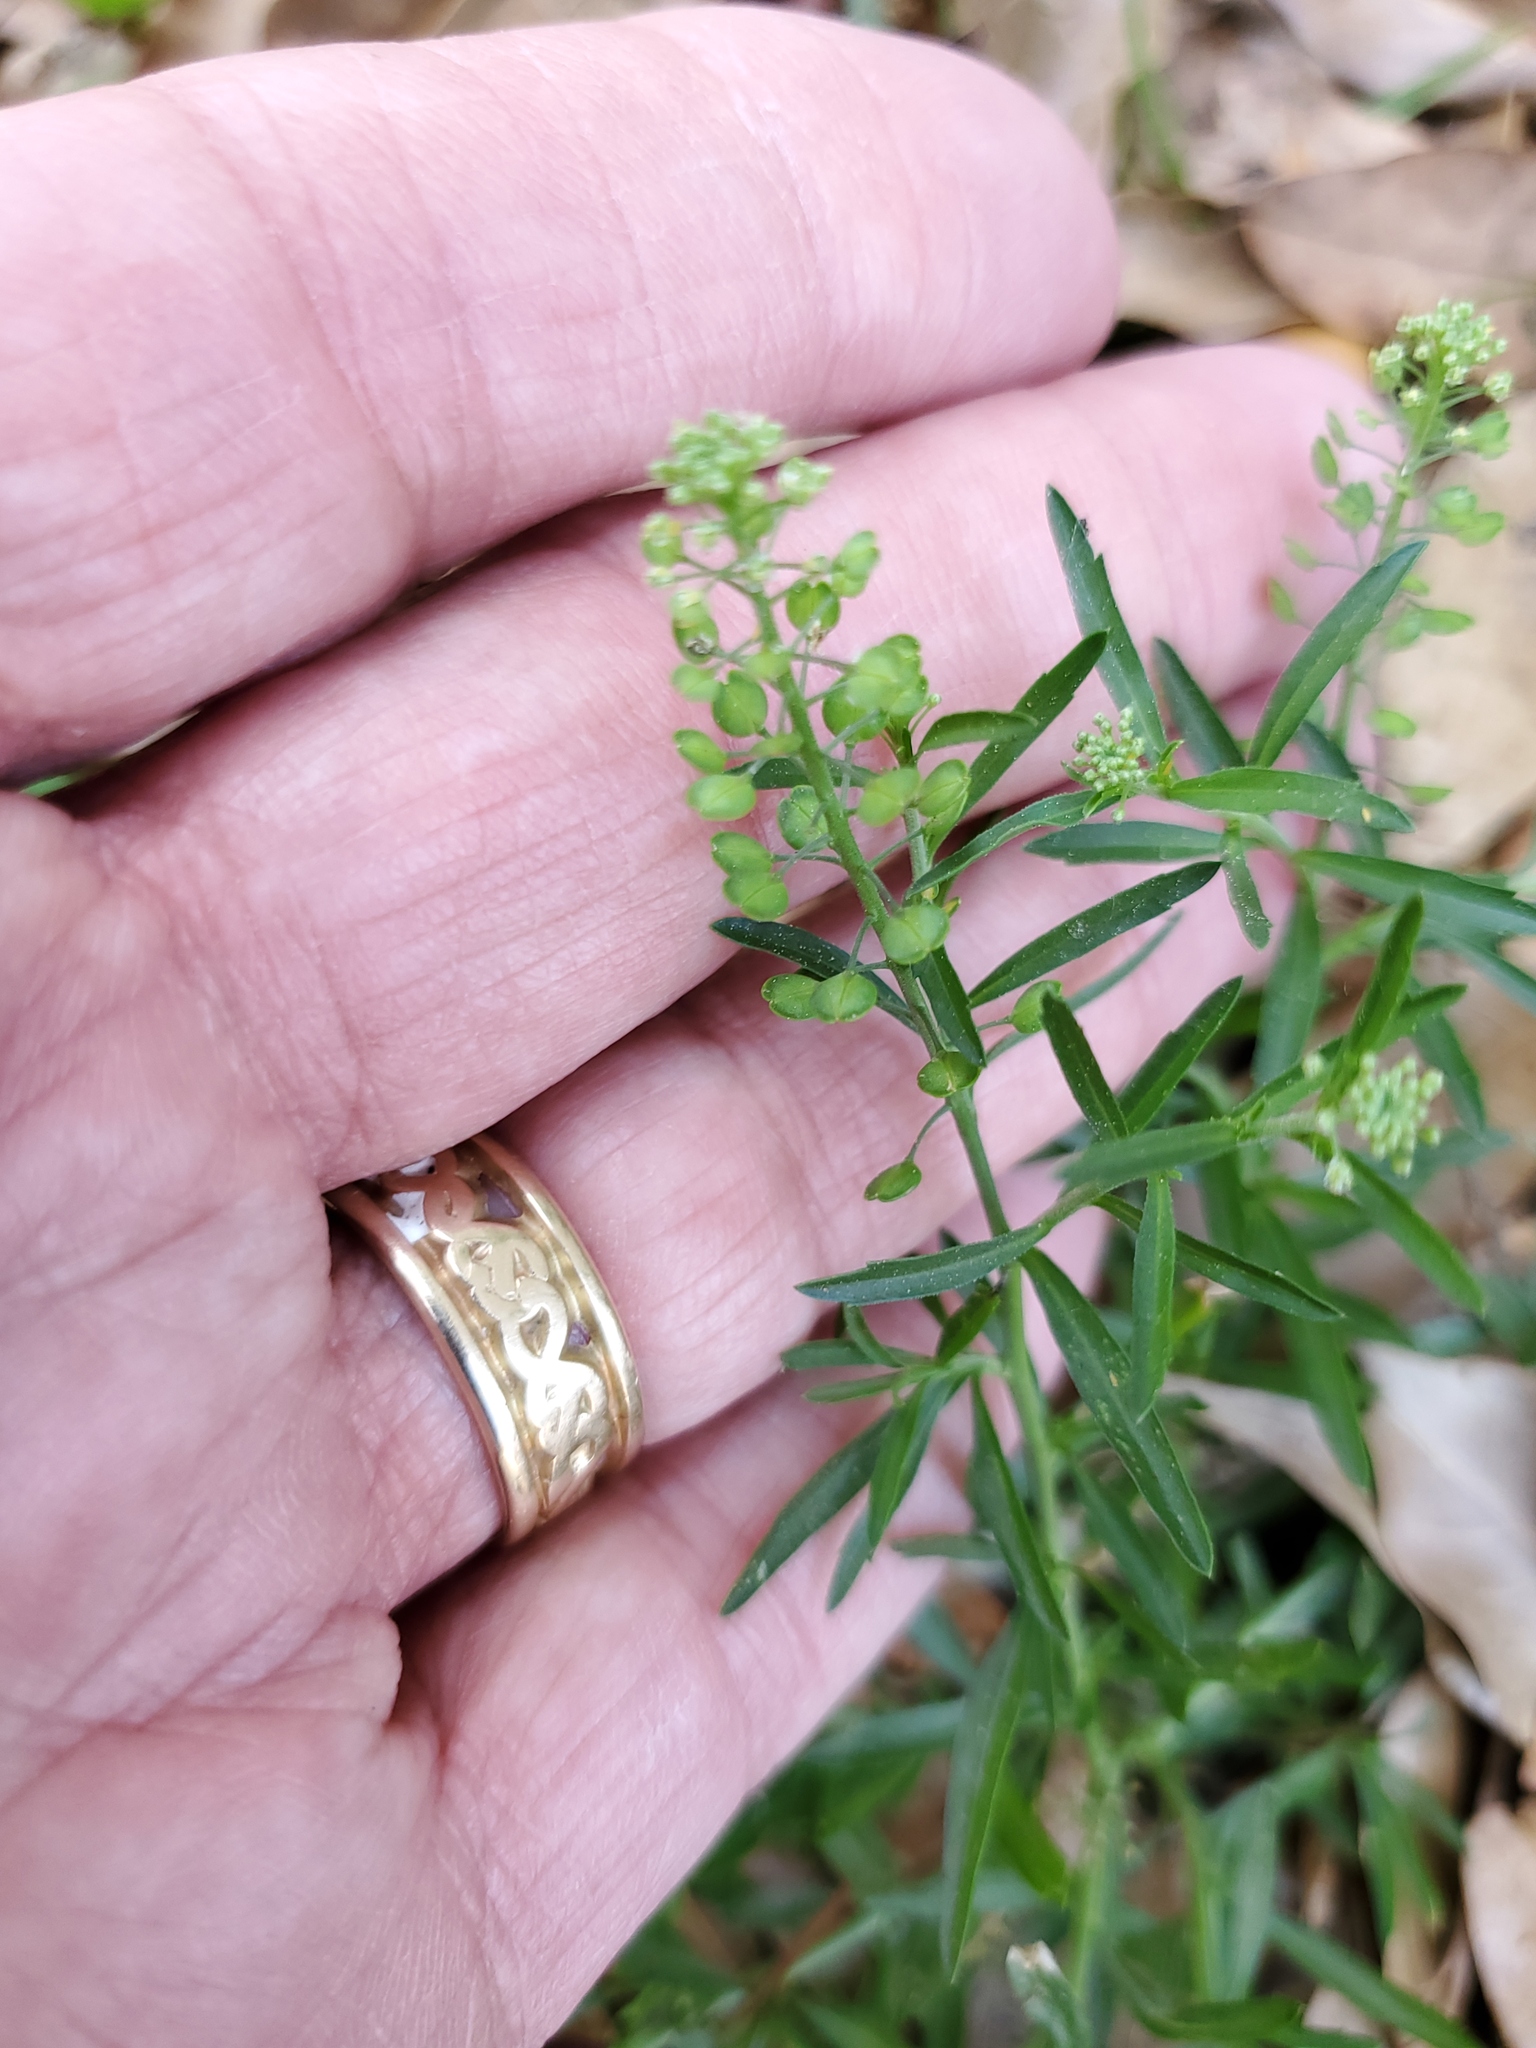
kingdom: Plantae
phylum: Tracheophyta
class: Magnoliopsida
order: Brassicales
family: Brassicaceae
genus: Lepidium
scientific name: Lepidium virginicum
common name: Least pepperwort
